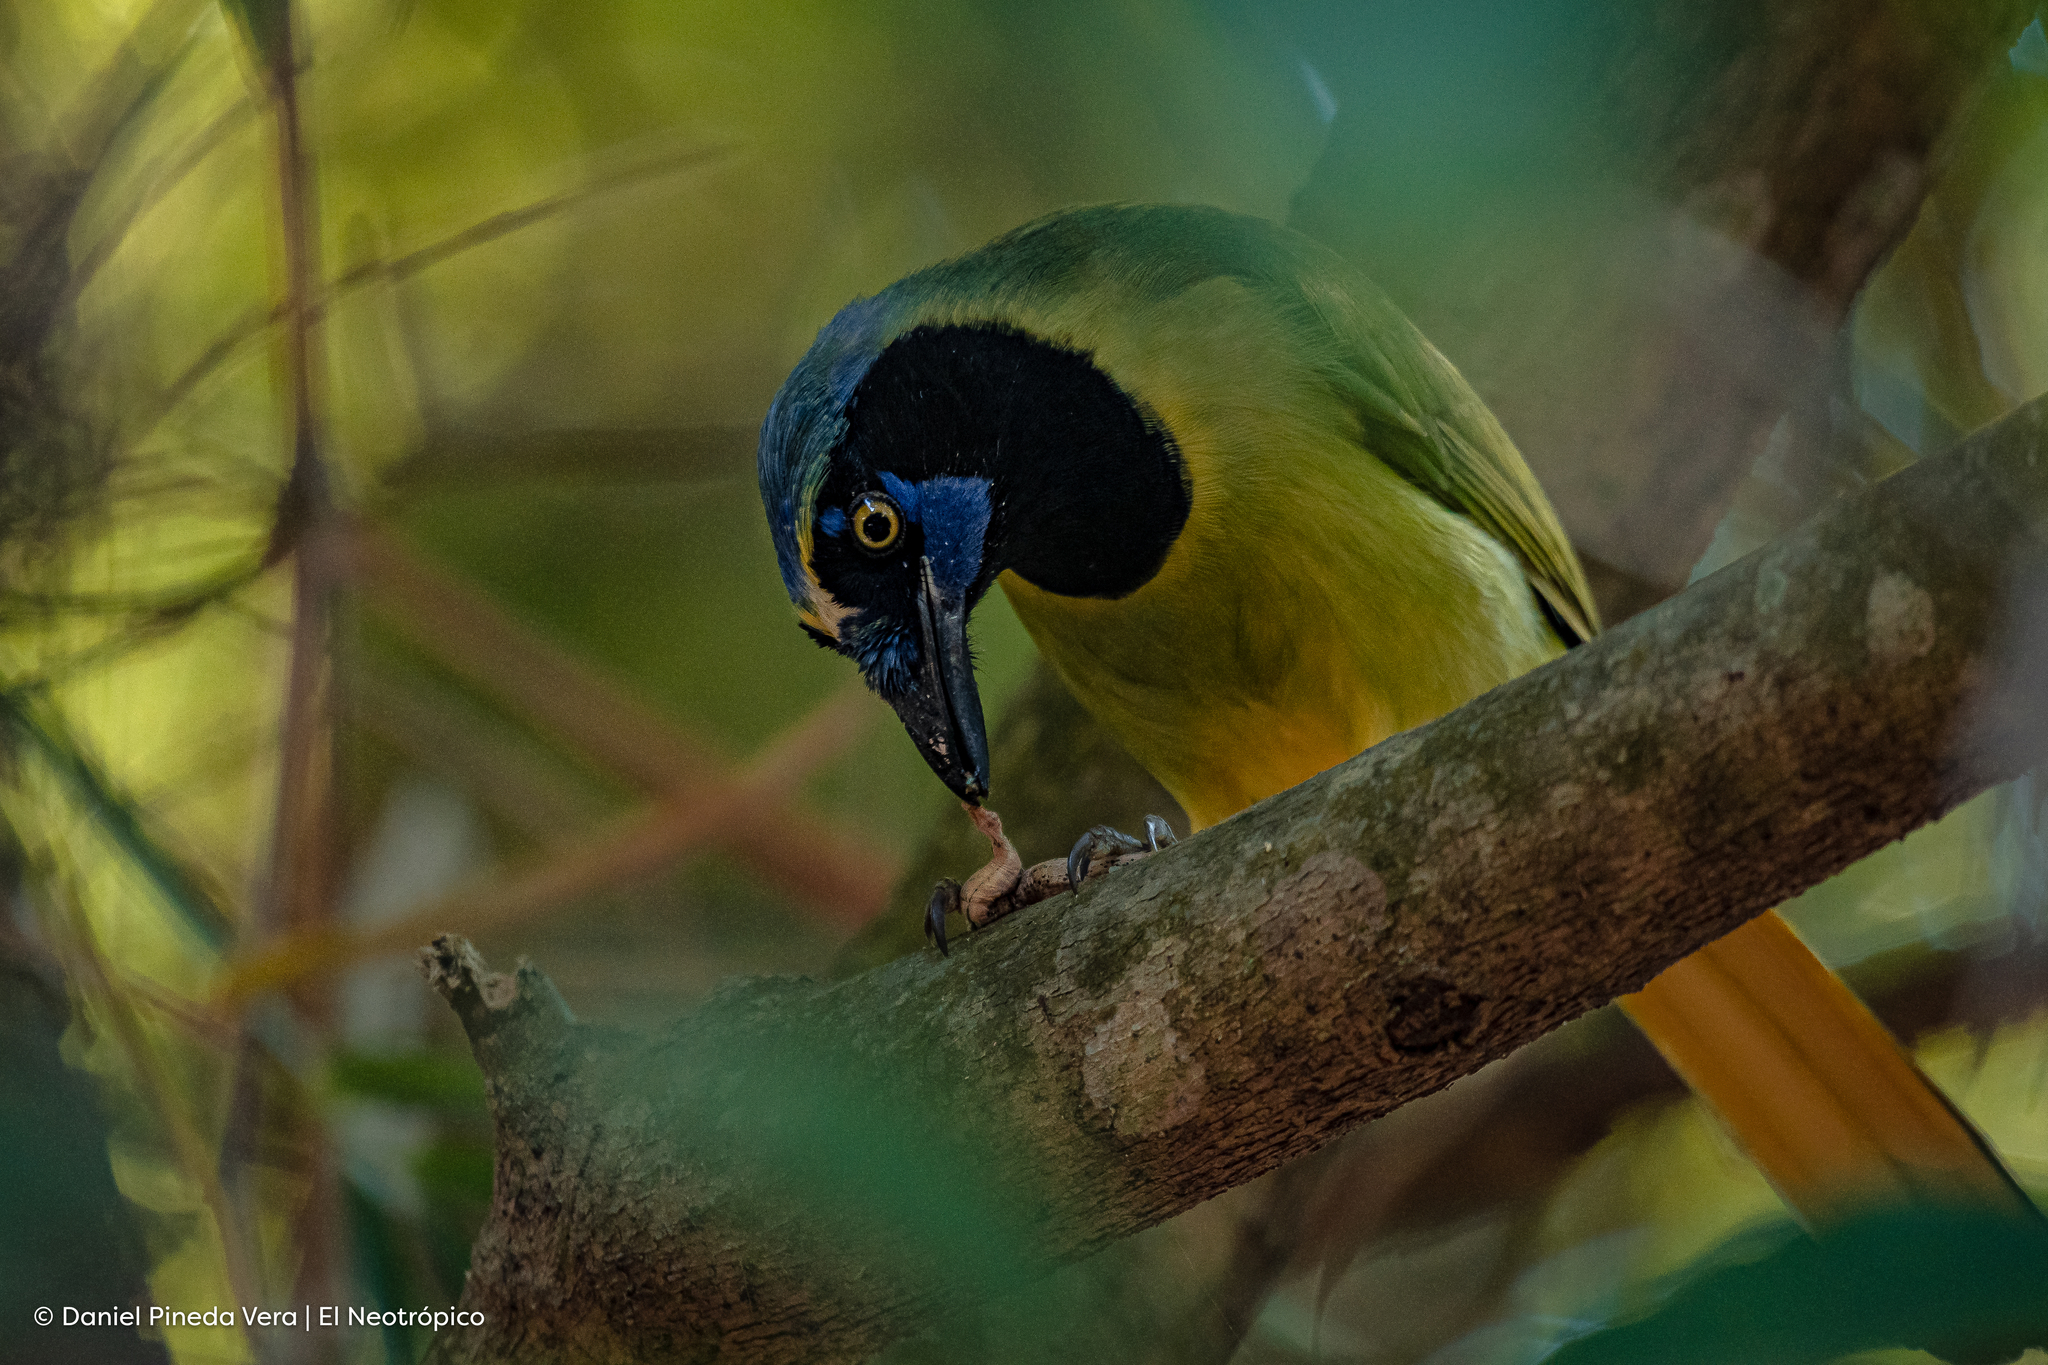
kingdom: Animalia
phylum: Chordata
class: Aves
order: Passeriformes
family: Corvidae
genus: Cyanocorax
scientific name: Cyanocorax yncas
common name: Green jay
